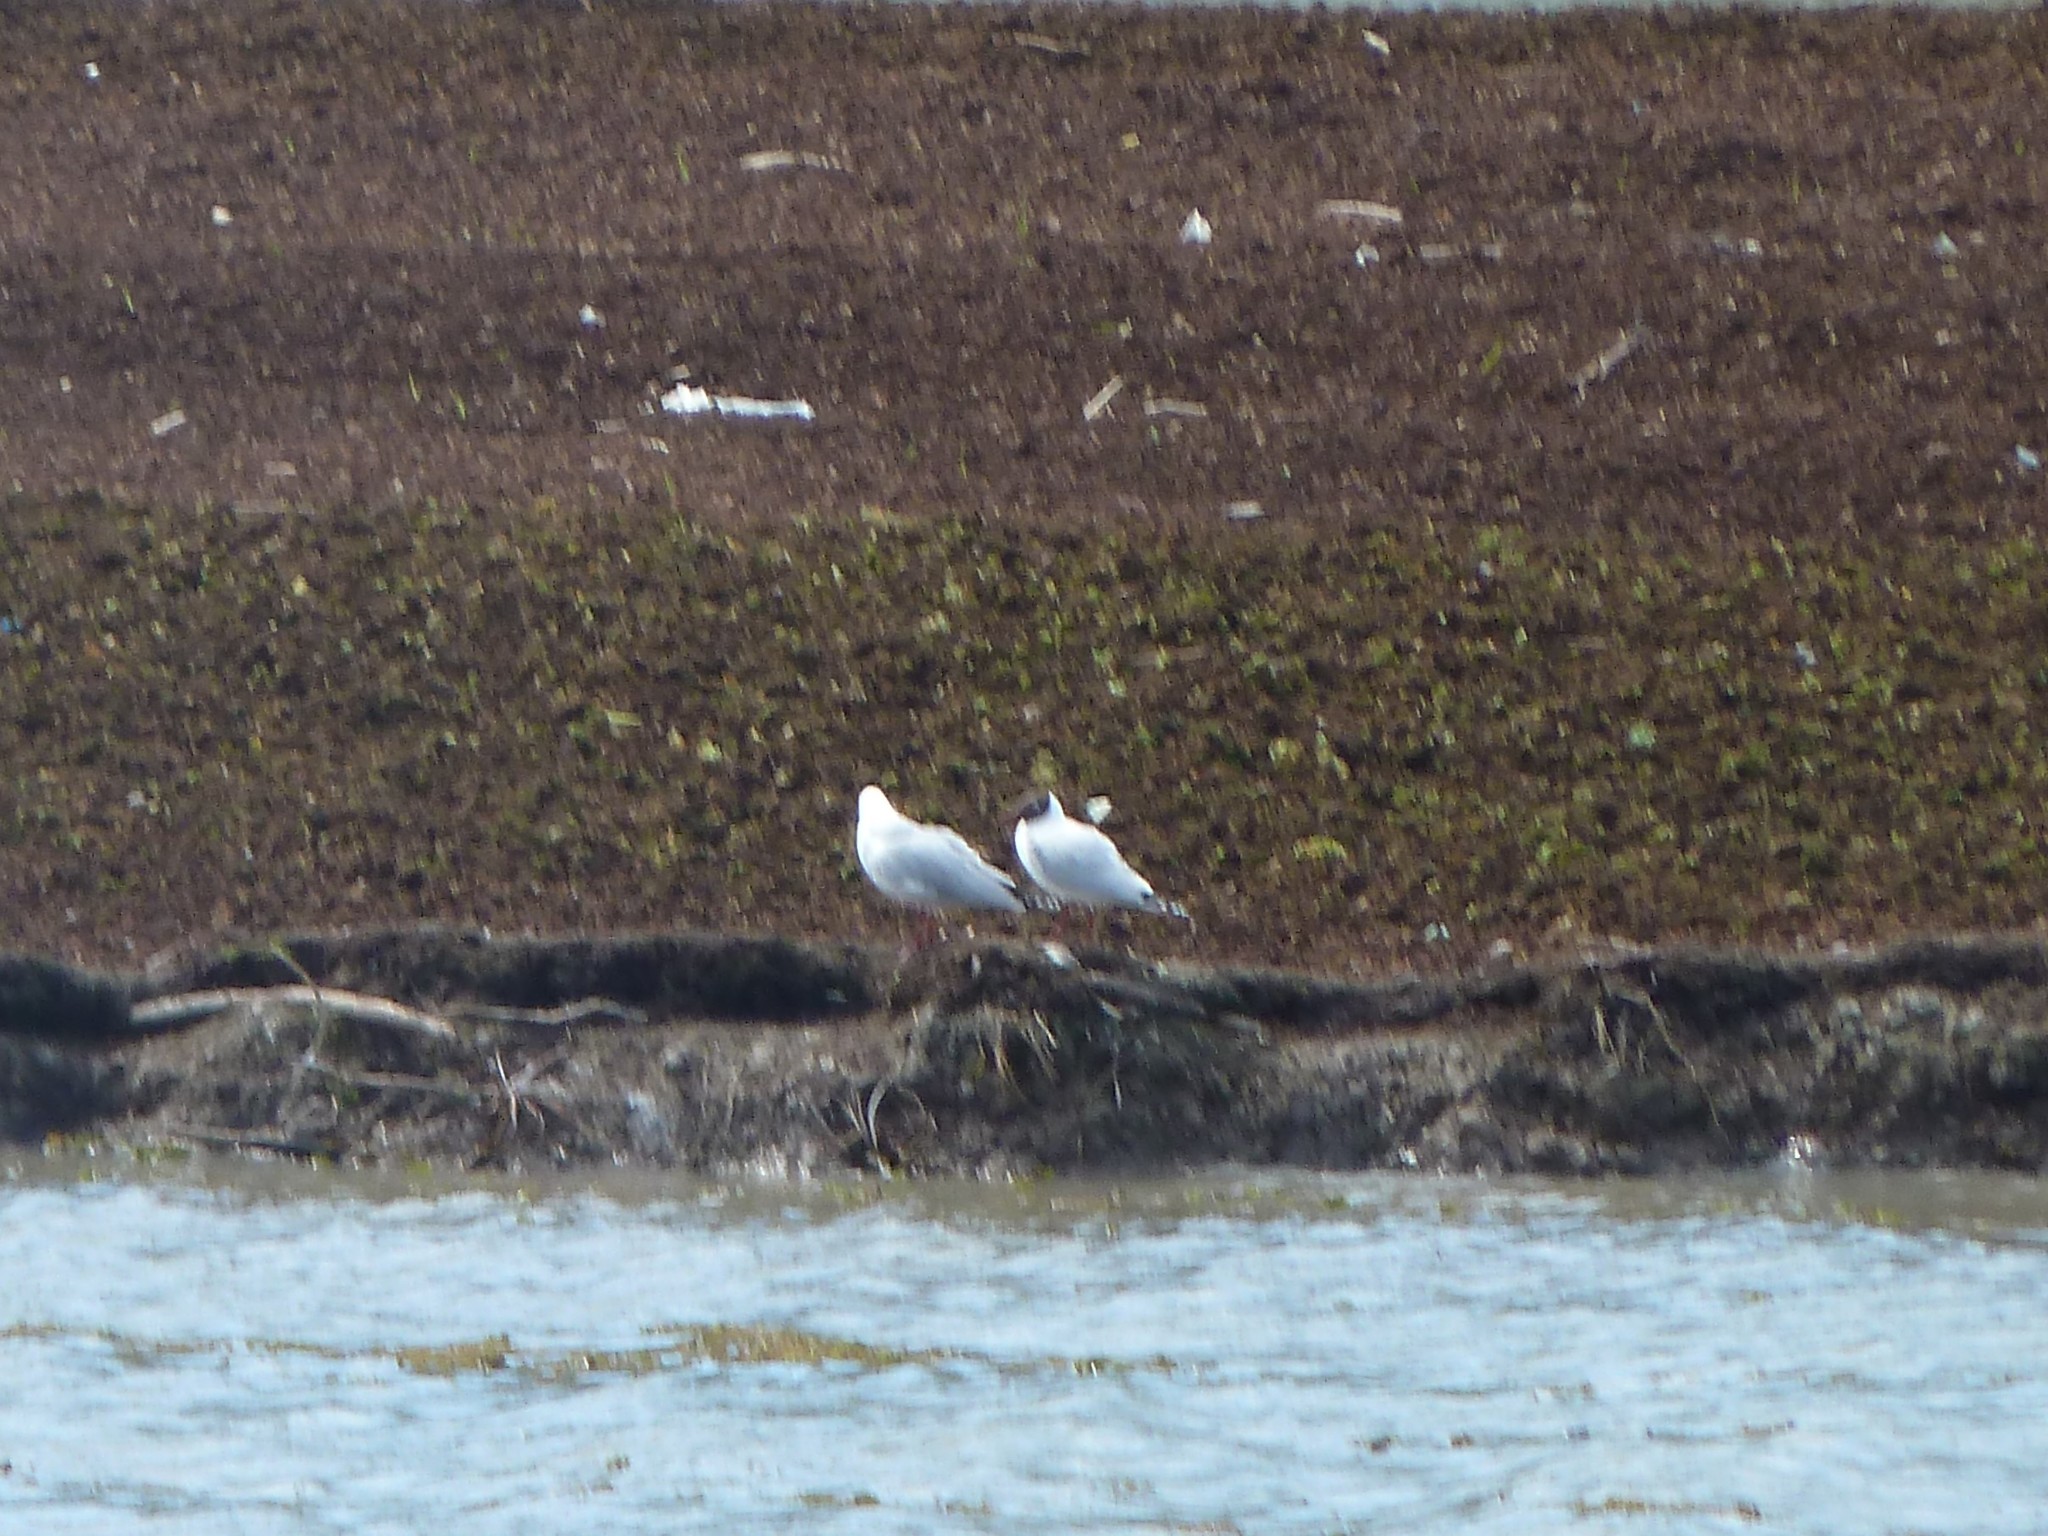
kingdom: Animalia
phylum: Chordata
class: Aves
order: Charadriiformes
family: Laridae
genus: Chroicocephalus
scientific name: Chroicocephalus maculipennis
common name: Brown-hooded gull
